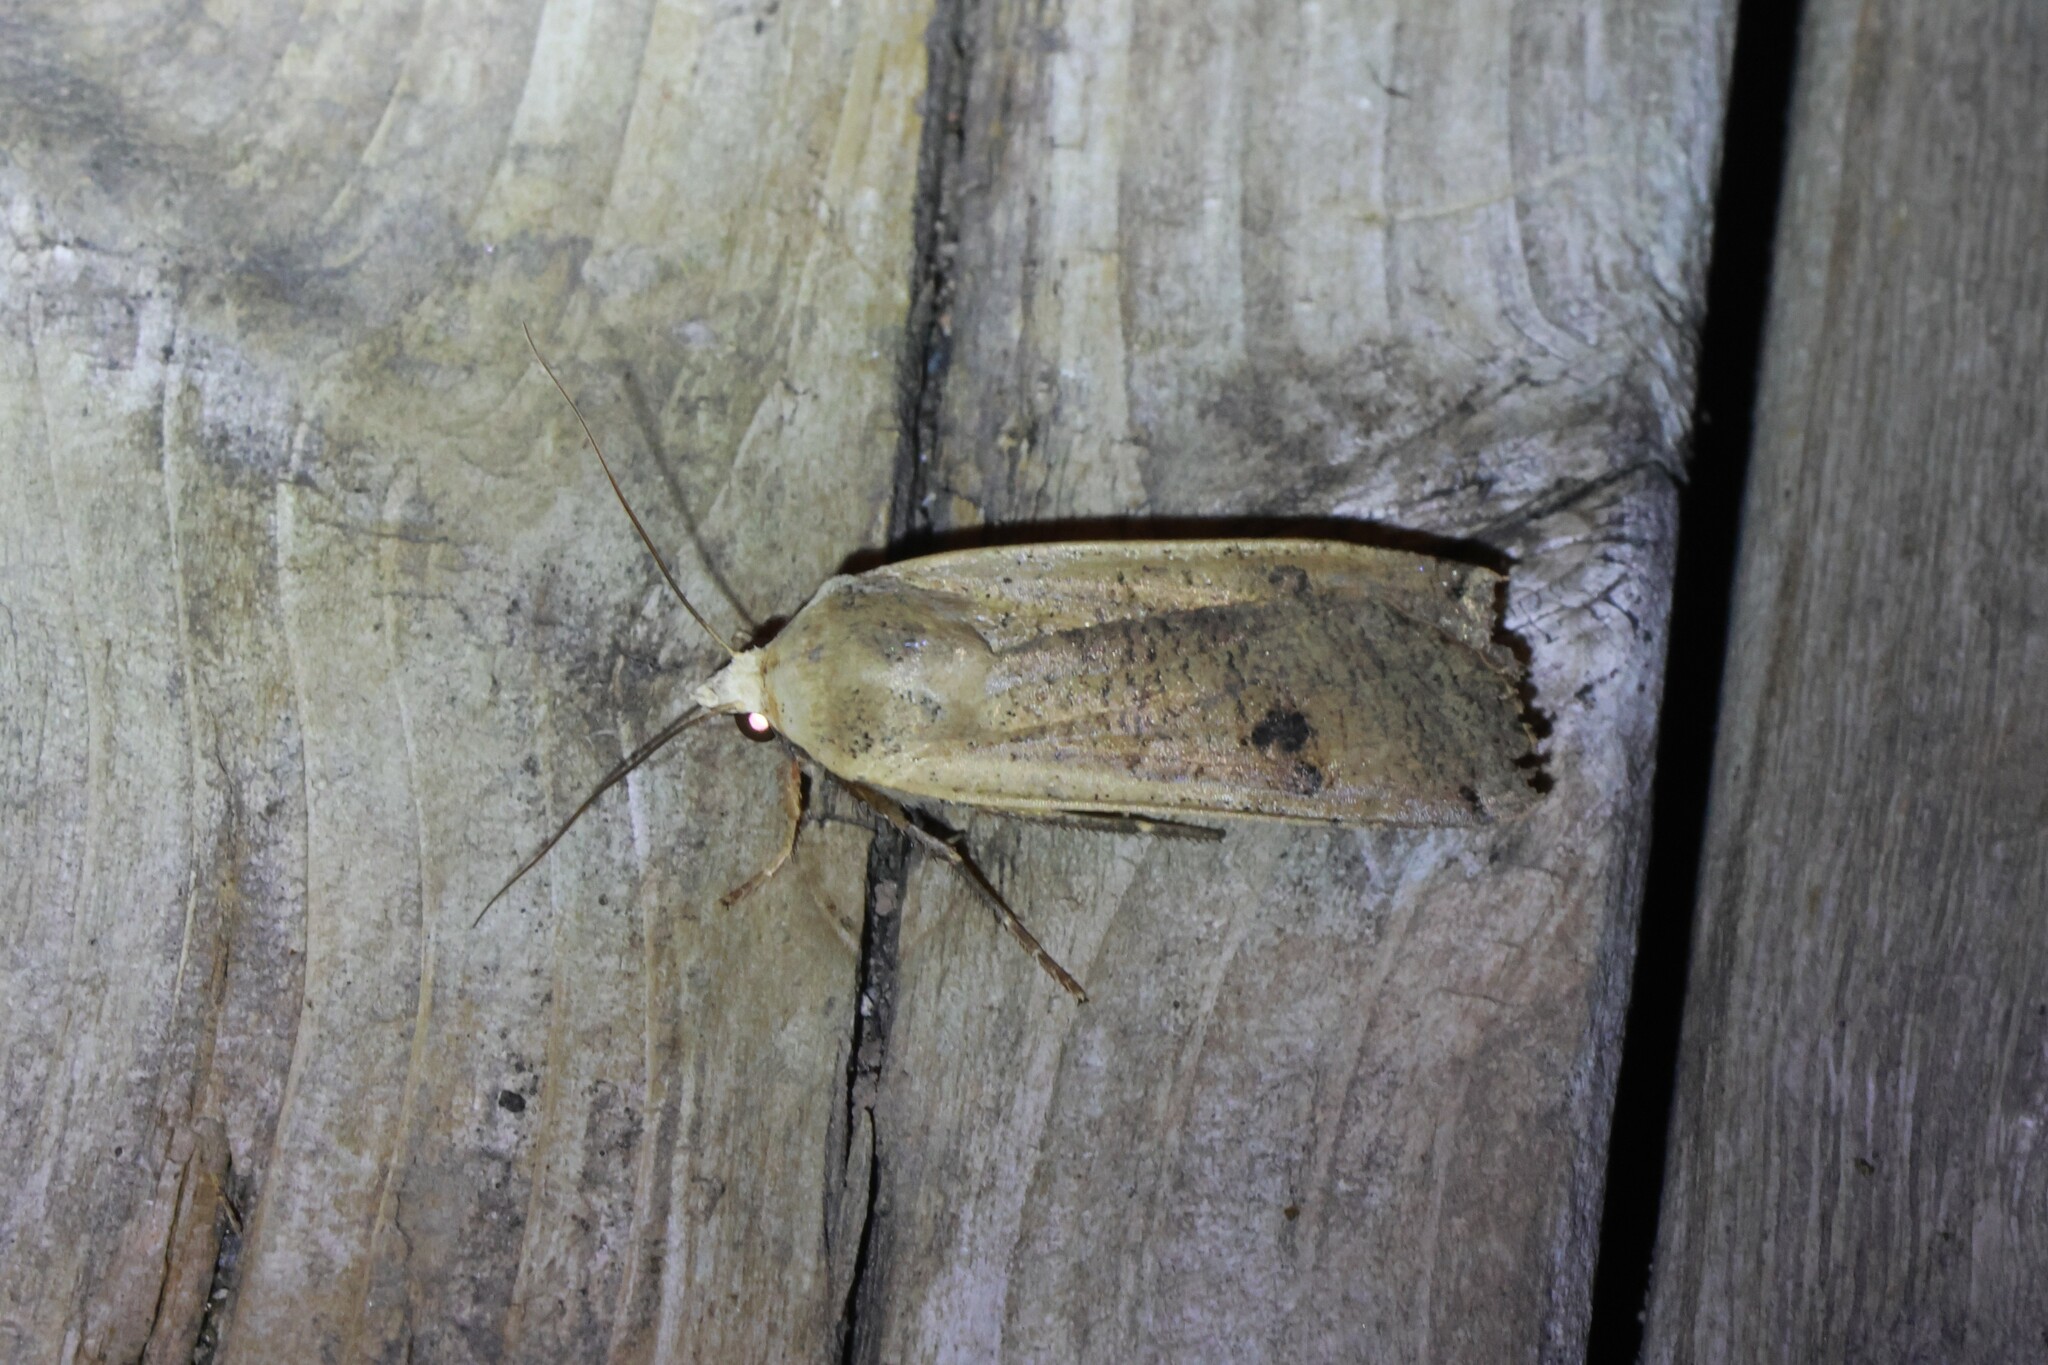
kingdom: Animalia
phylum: Arthropoda
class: Insecta
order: Lepidoptera
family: Noctuidae
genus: Noctua
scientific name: Noctua pronuba
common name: Large yellow underwing
